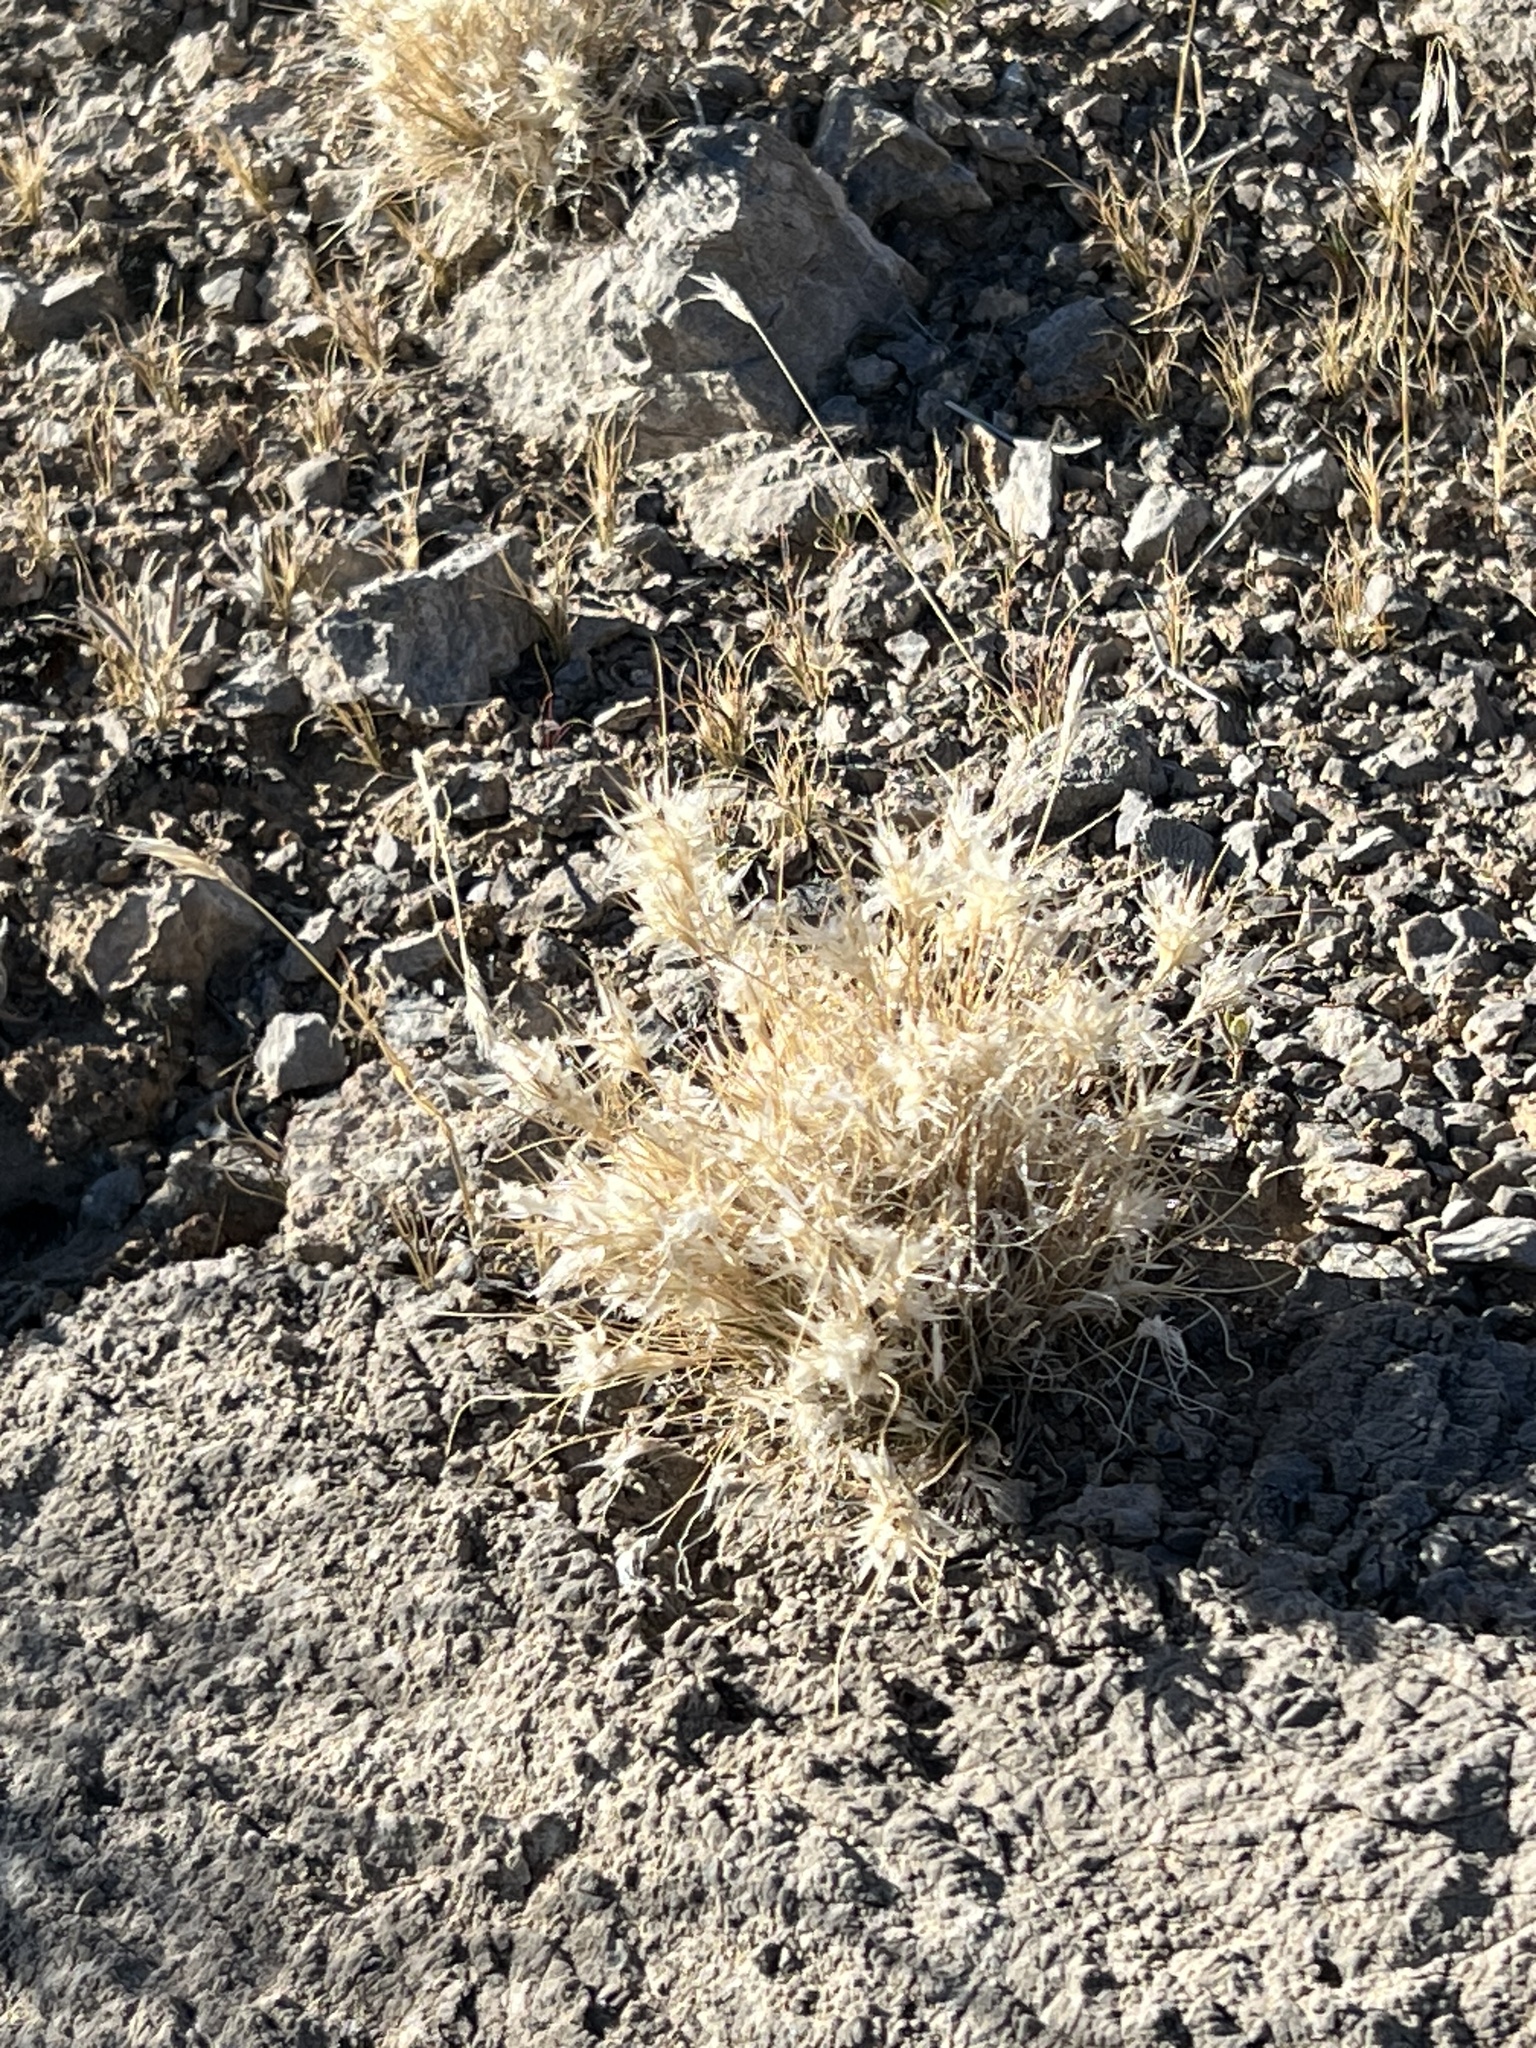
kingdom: Plantae
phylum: Tracheophyta
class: Liliopsida
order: Poales
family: Poaceae
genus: Dasyochloa
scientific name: Dasyochloa pulchella
